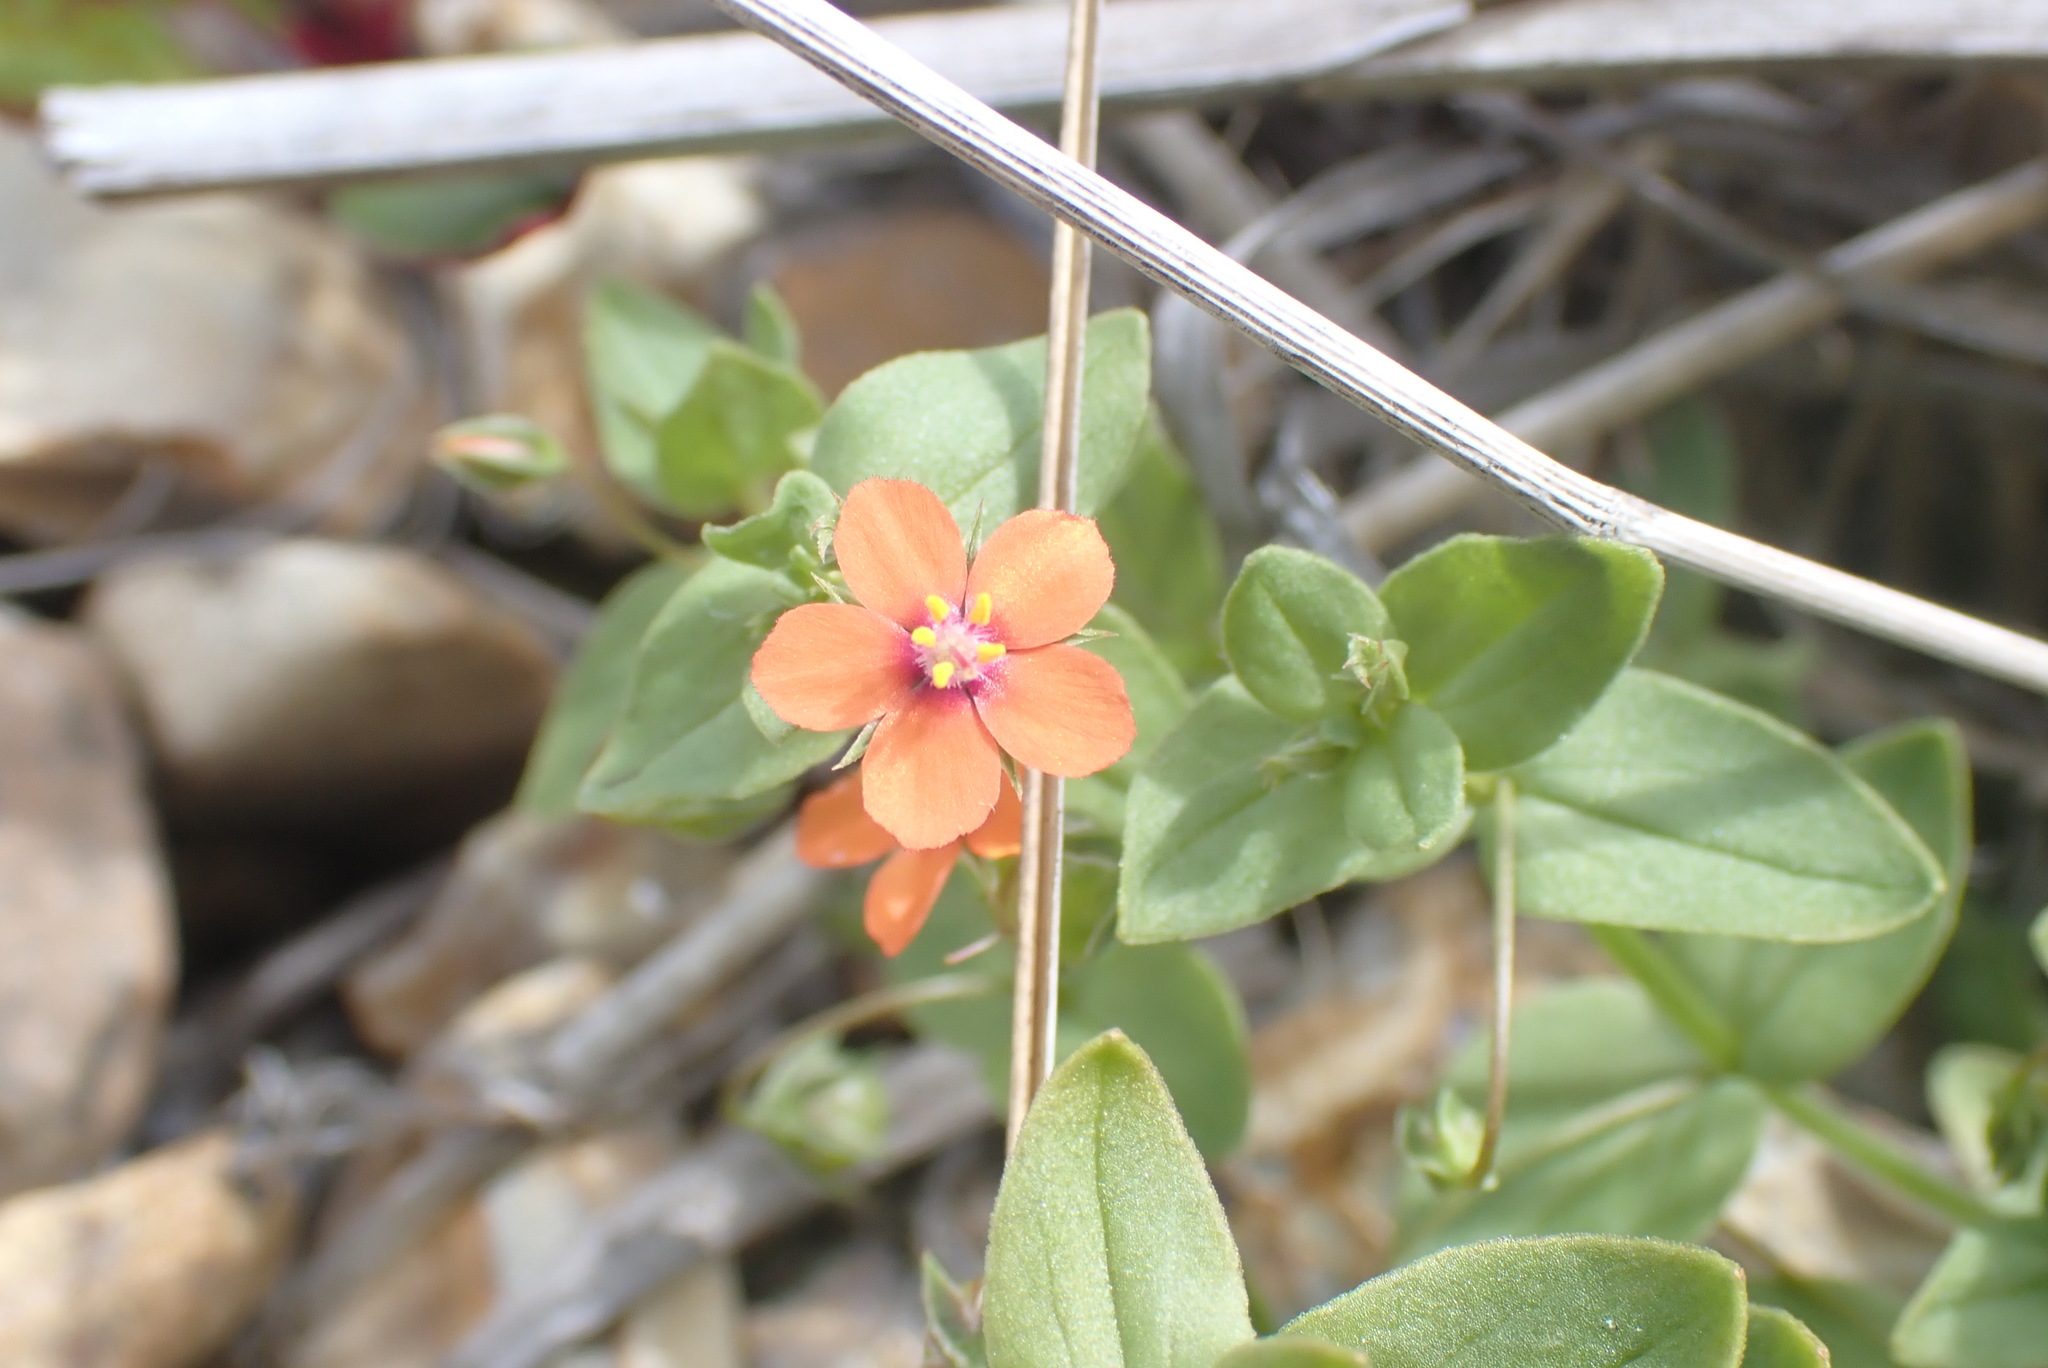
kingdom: Plantae
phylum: Tracheophyta
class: Magnoliopsida
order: Ericales
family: Primulaceae
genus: Lysimachia
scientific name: Lysimachia arvensis
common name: Scarlet pimpernel
